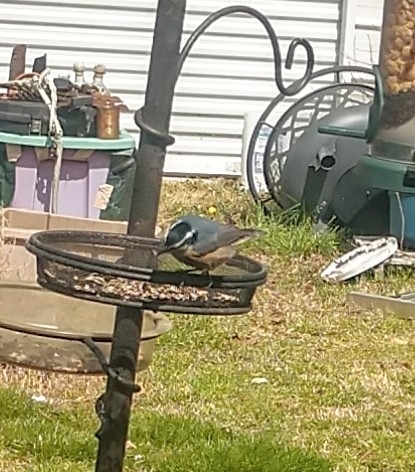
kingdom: Animalia
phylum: Chordata
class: Aves
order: Passeriformes
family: Sittidae
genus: Sitta
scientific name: Sitta canadensis
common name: Red-breasted nuthatch
